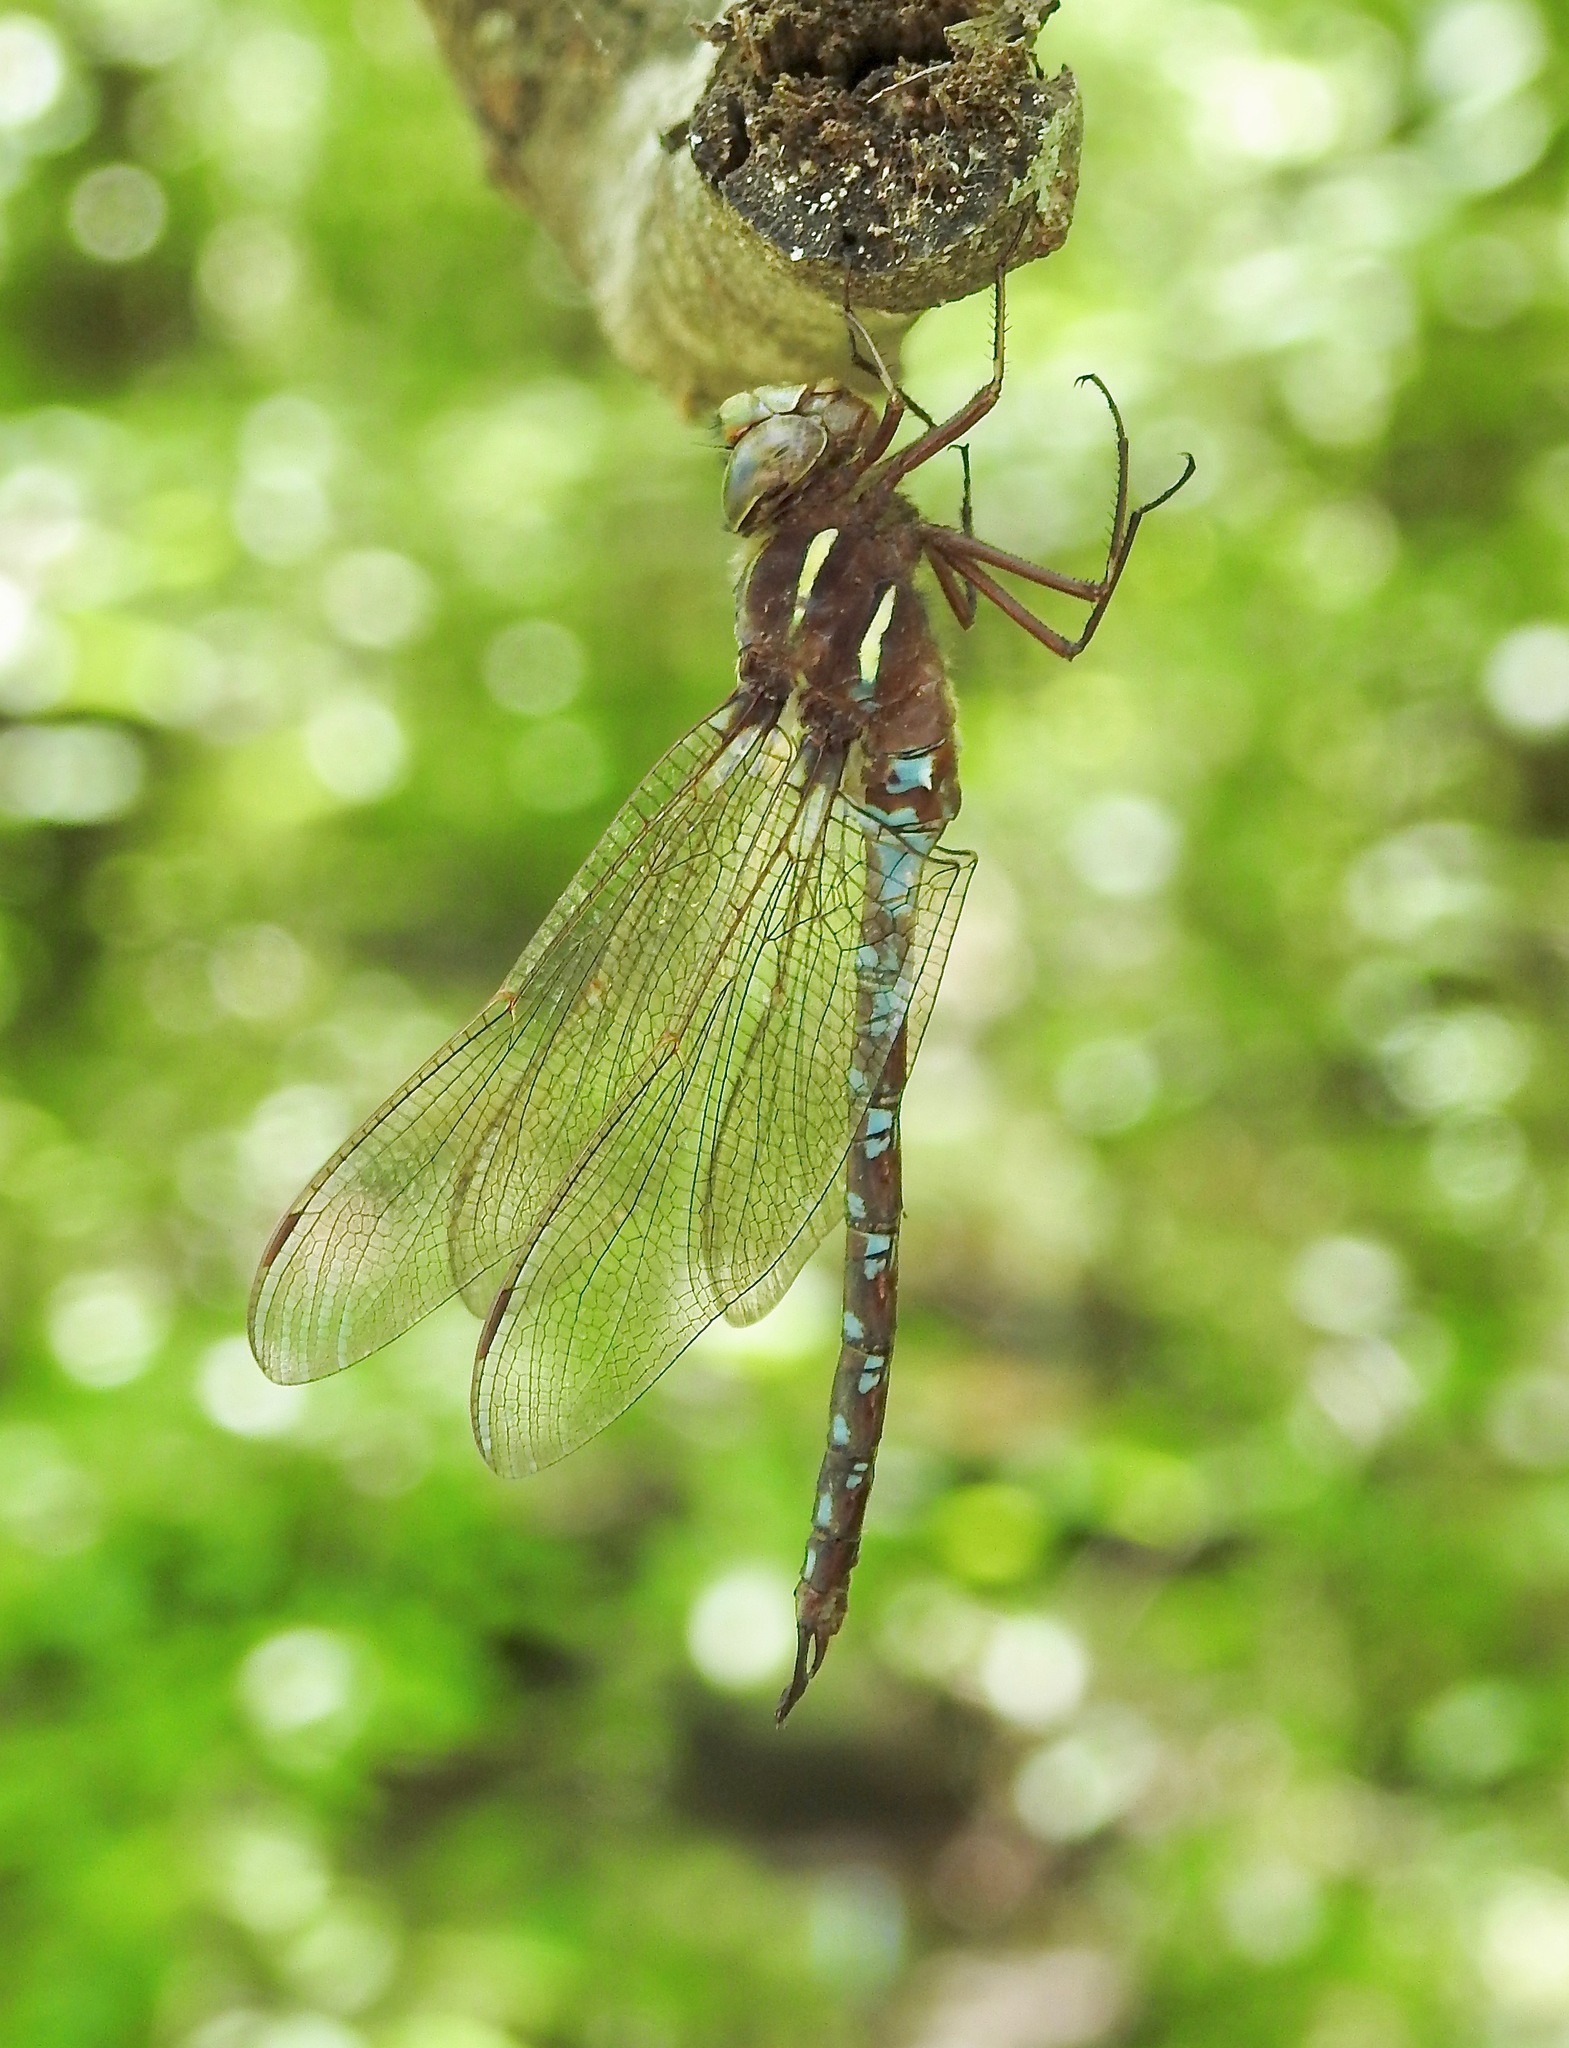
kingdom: Animalia
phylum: Arthropoda
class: Insecta
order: Odonata
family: Aeshnidae
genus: Basiaeschna
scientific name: Basiaeschna janata
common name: Springtime darner
